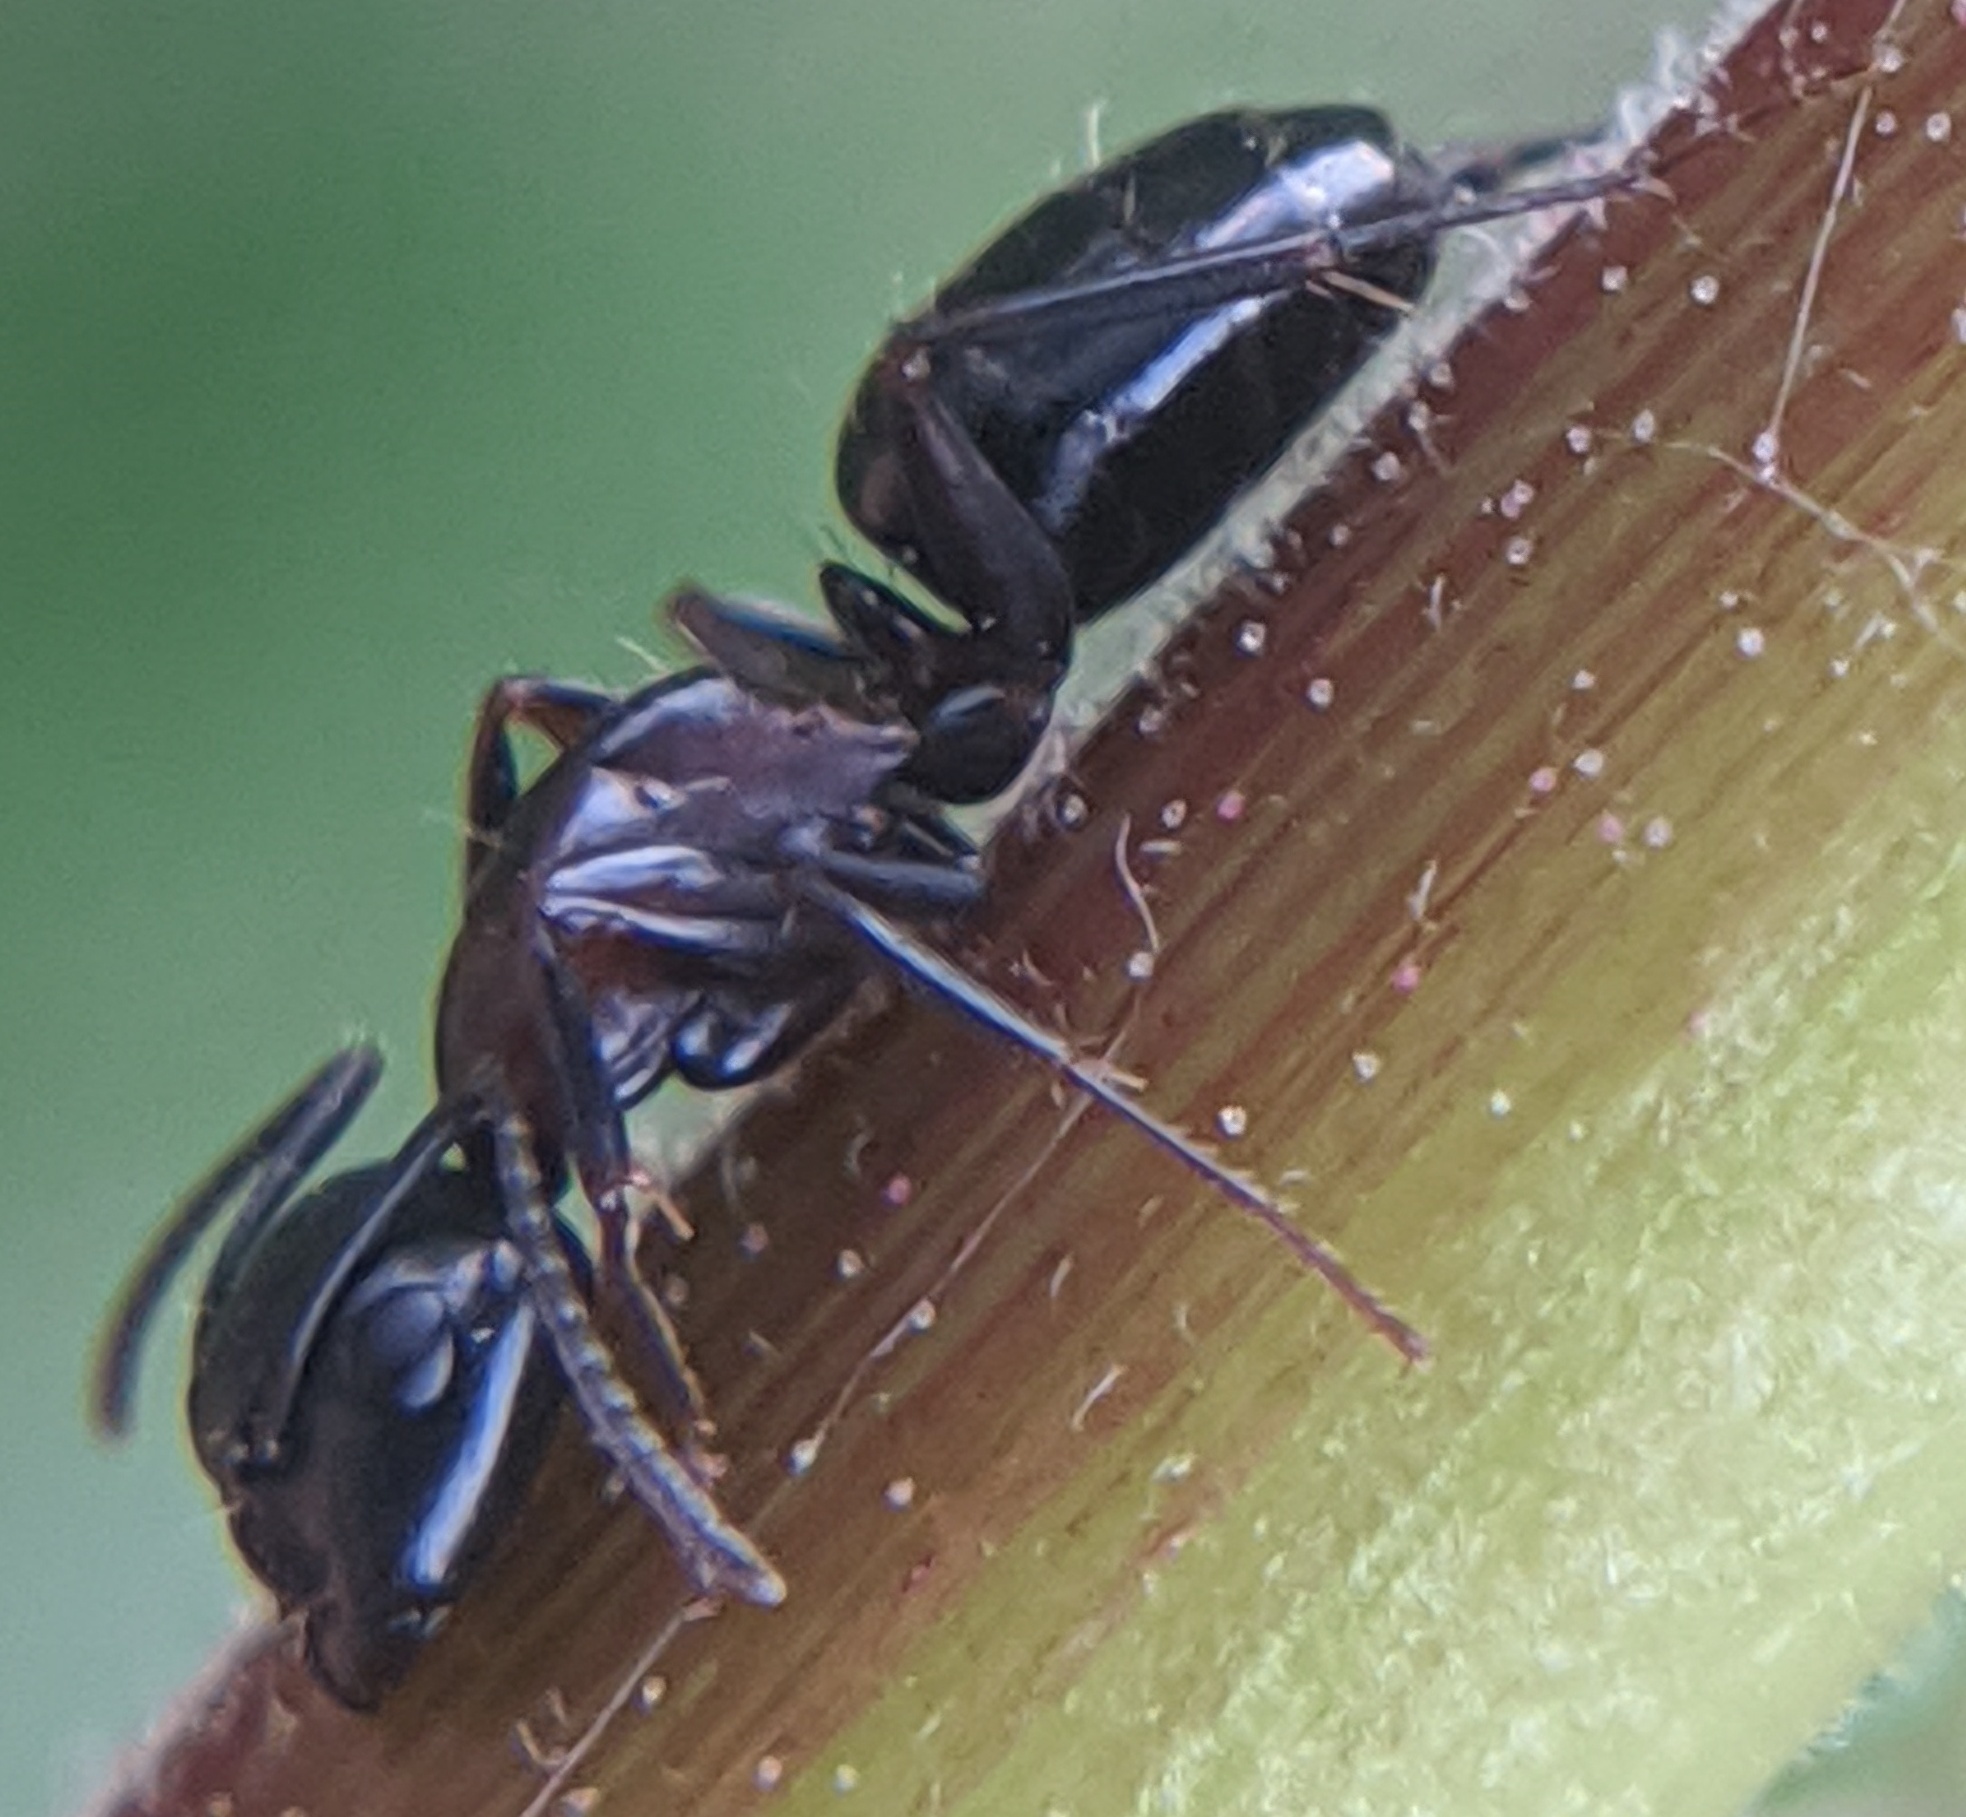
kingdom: Animalia
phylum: Arthropoda
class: Insecta
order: Hymenoptera
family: Formicidae
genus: Camponotus
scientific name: Camponotus nearcticus
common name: Smaller carpenter ant
